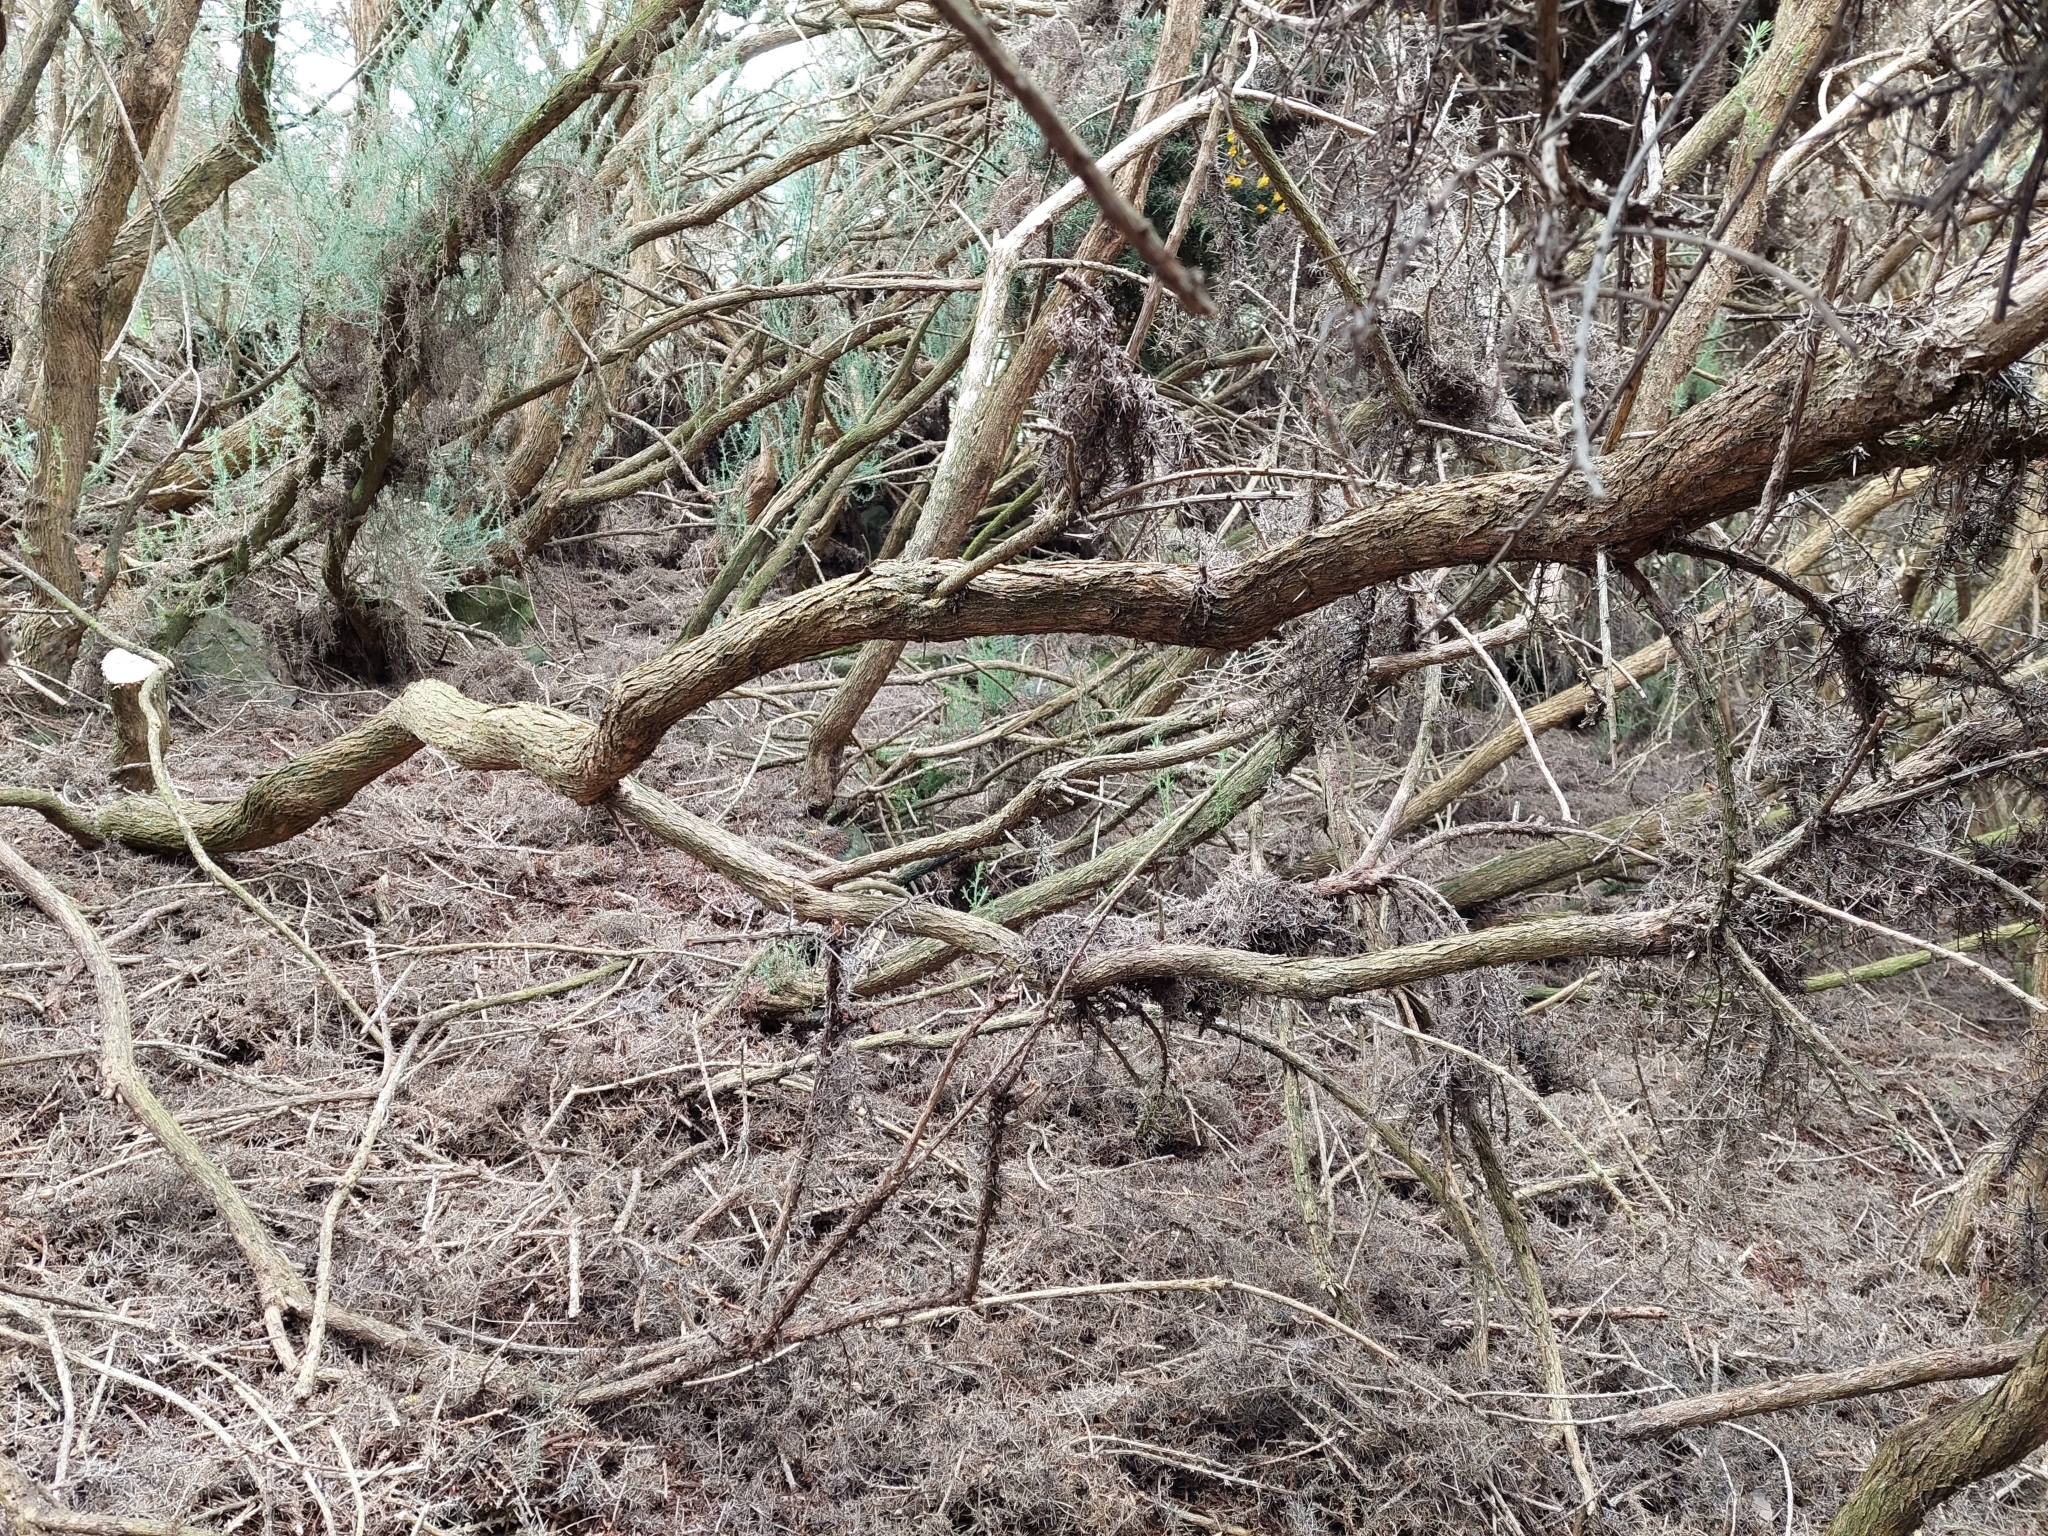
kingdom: Plantae
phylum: Tracheophyta
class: Magnoliopsida
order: Fabales
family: Fabaceae
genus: Ulex
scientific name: Ulex europaeus
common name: Common gorse
